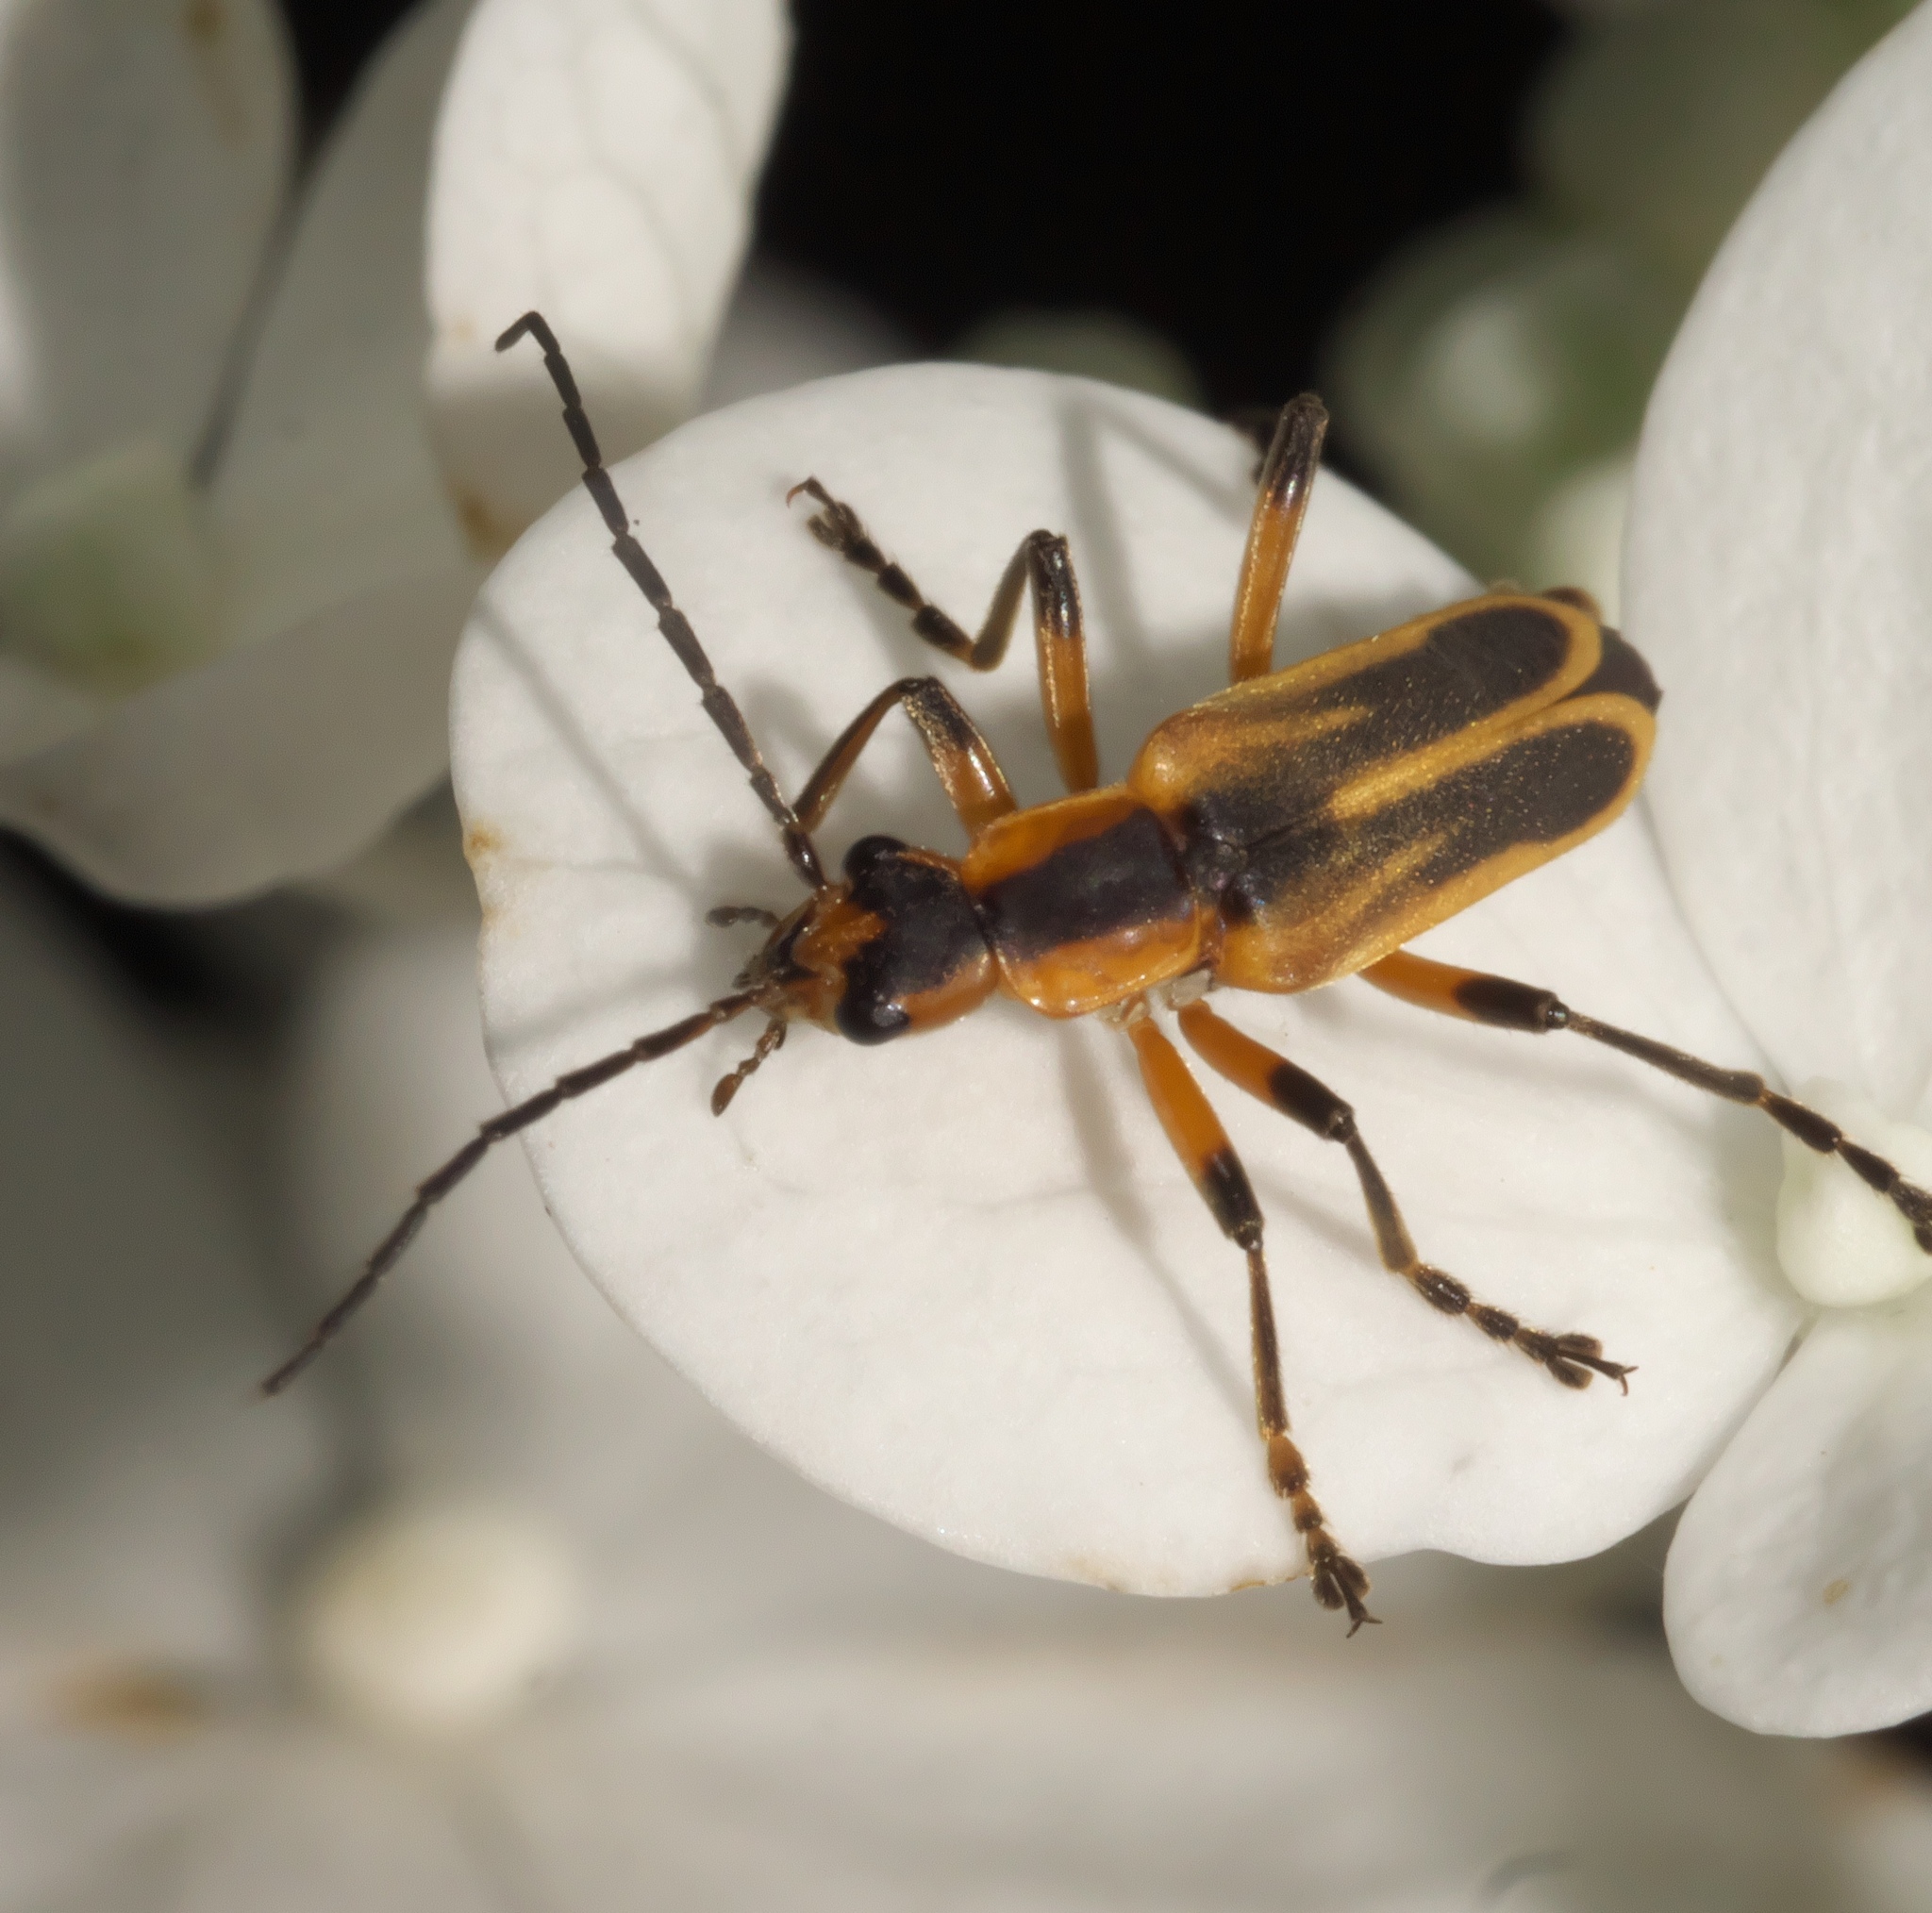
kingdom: Animalia
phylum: Arthropoda
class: Insecta
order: Coleoptera
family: Cantharidae
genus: Chauliognathus
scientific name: Chauliognathus marginatus
